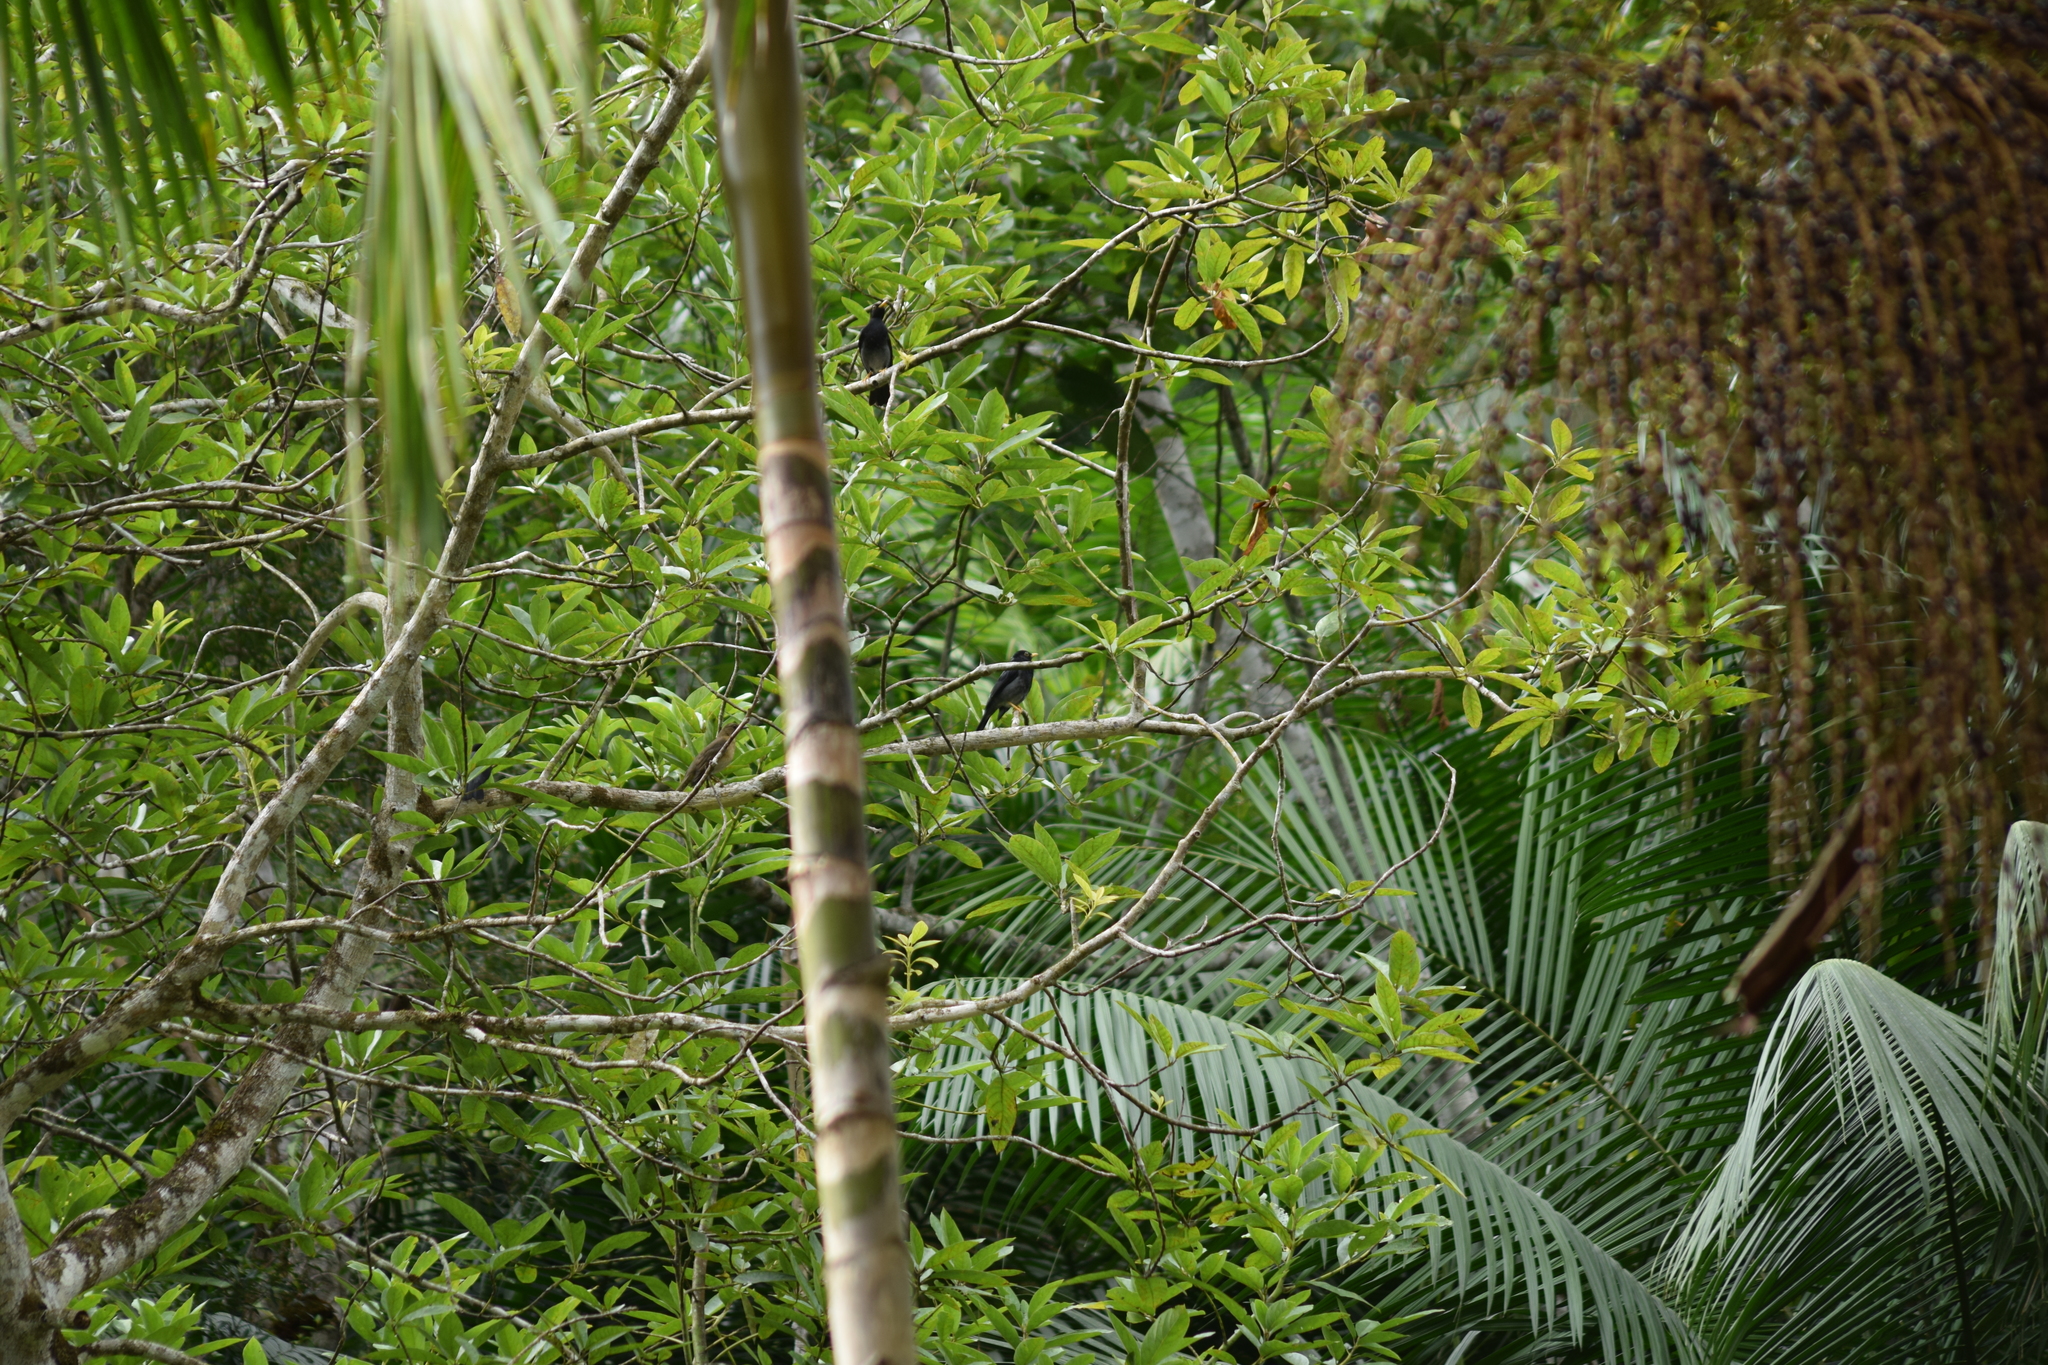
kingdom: Animalia
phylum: Chordata
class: Aves
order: Passeriformes
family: Turdidae
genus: Turdus
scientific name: Turdus flavipes
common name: Yellow-legged thrush
